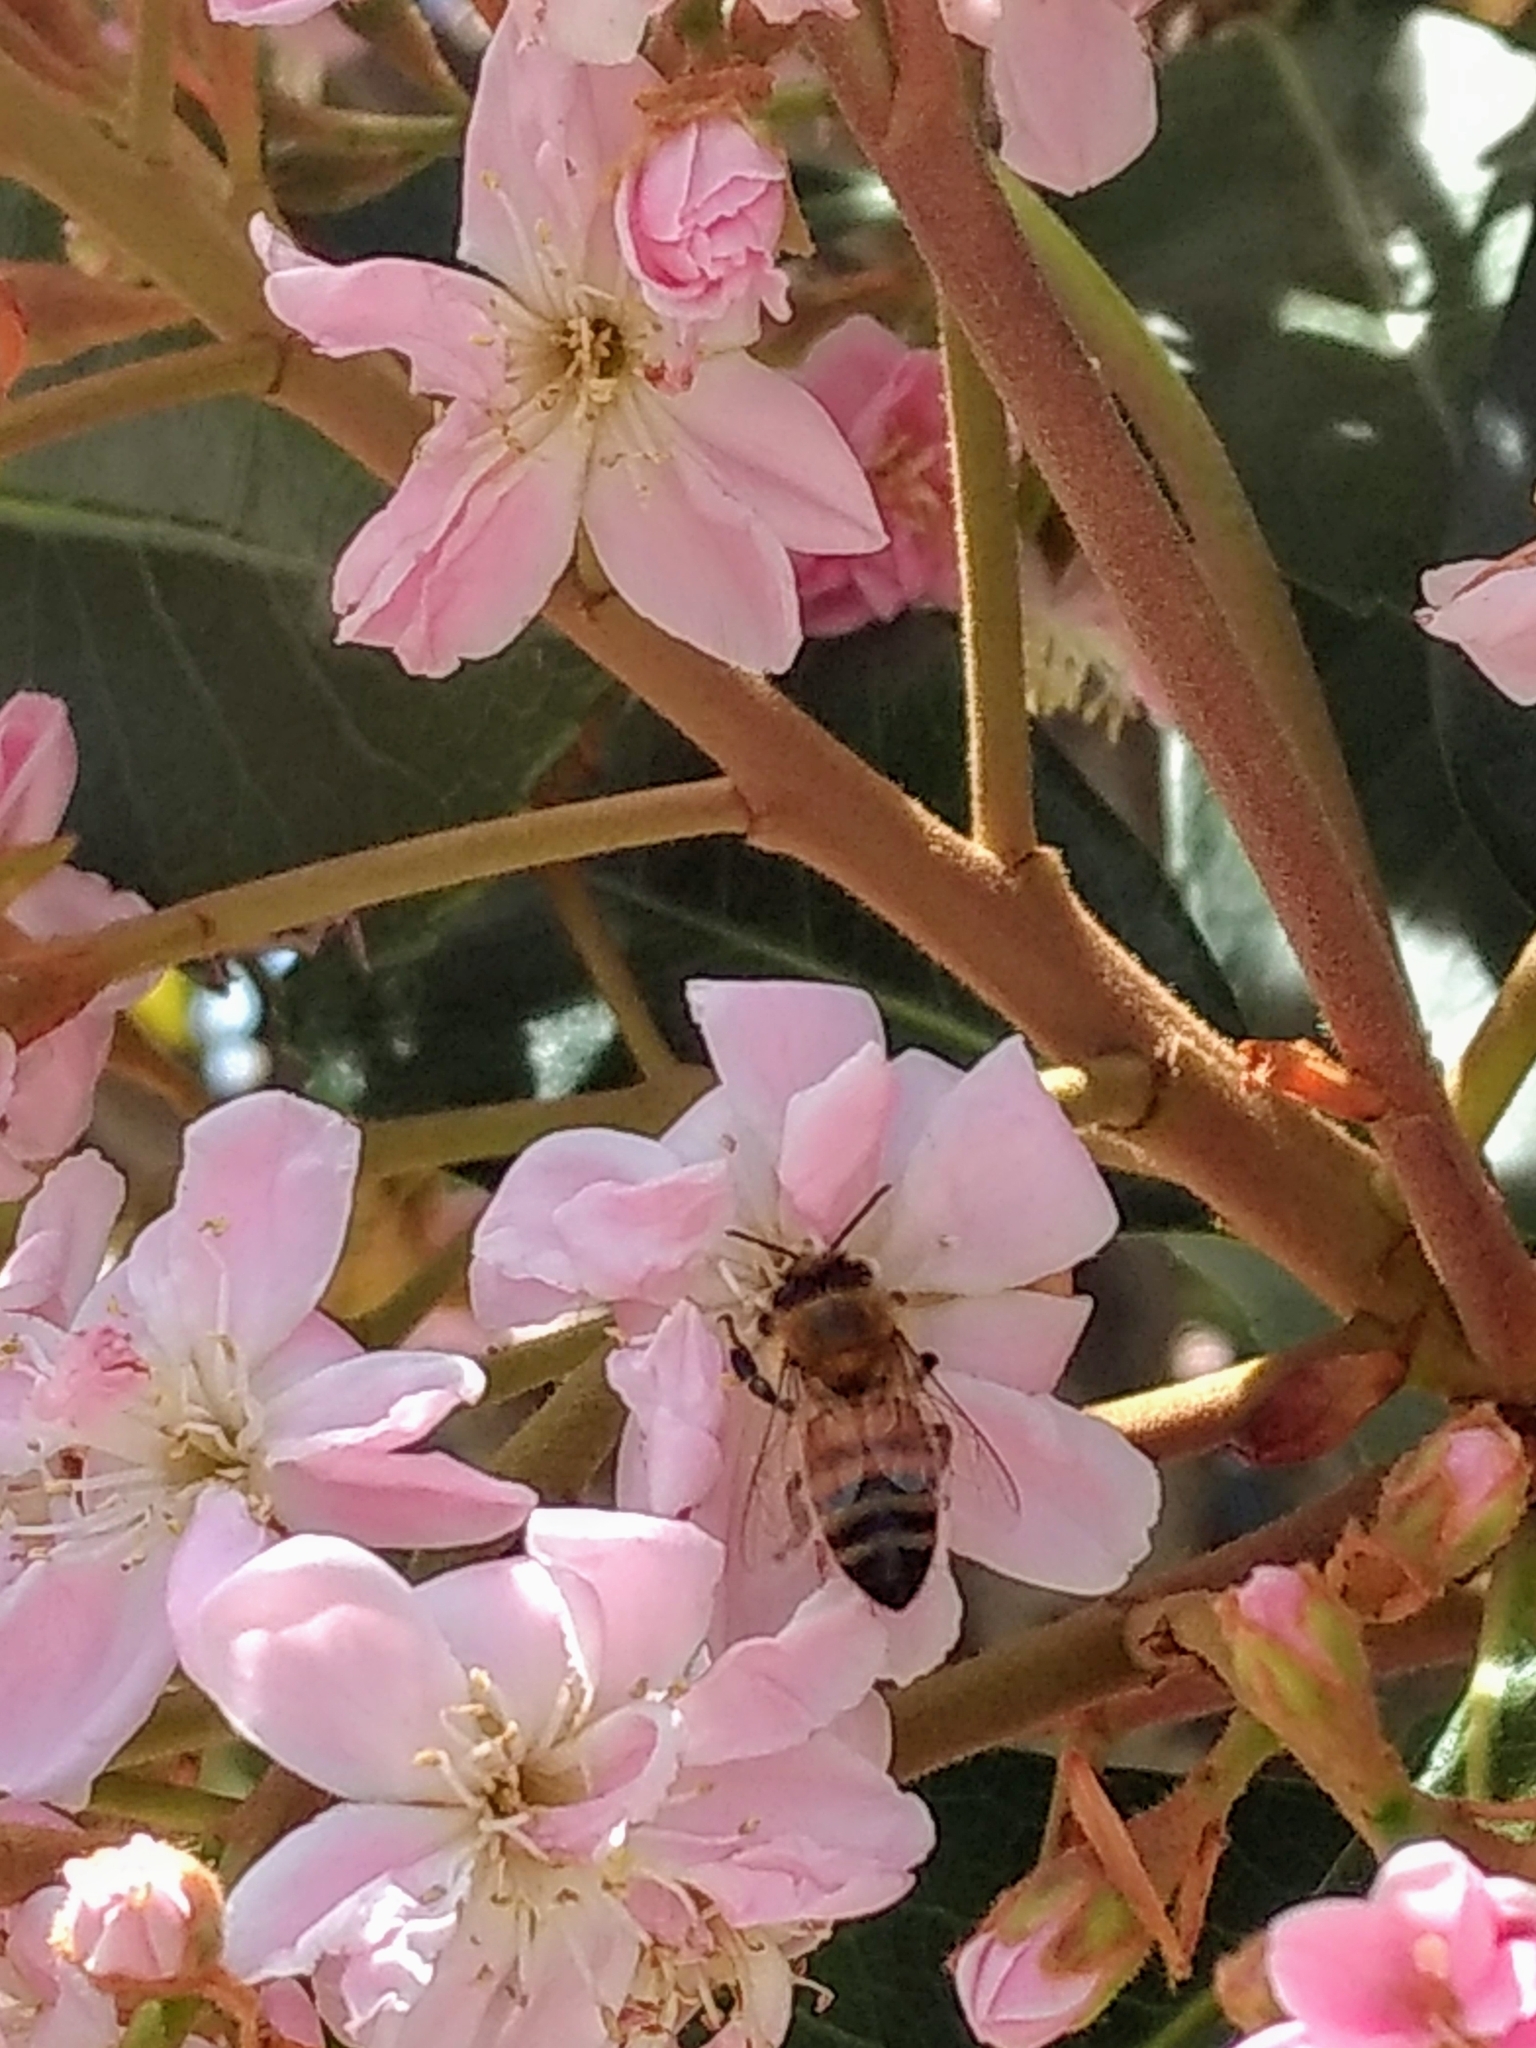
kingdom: Animalia
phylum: Arthropoda
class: Insecta
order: Hymenoptera
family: Apidae
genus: Apis
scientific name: Apis mellifera
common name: Honey bee
